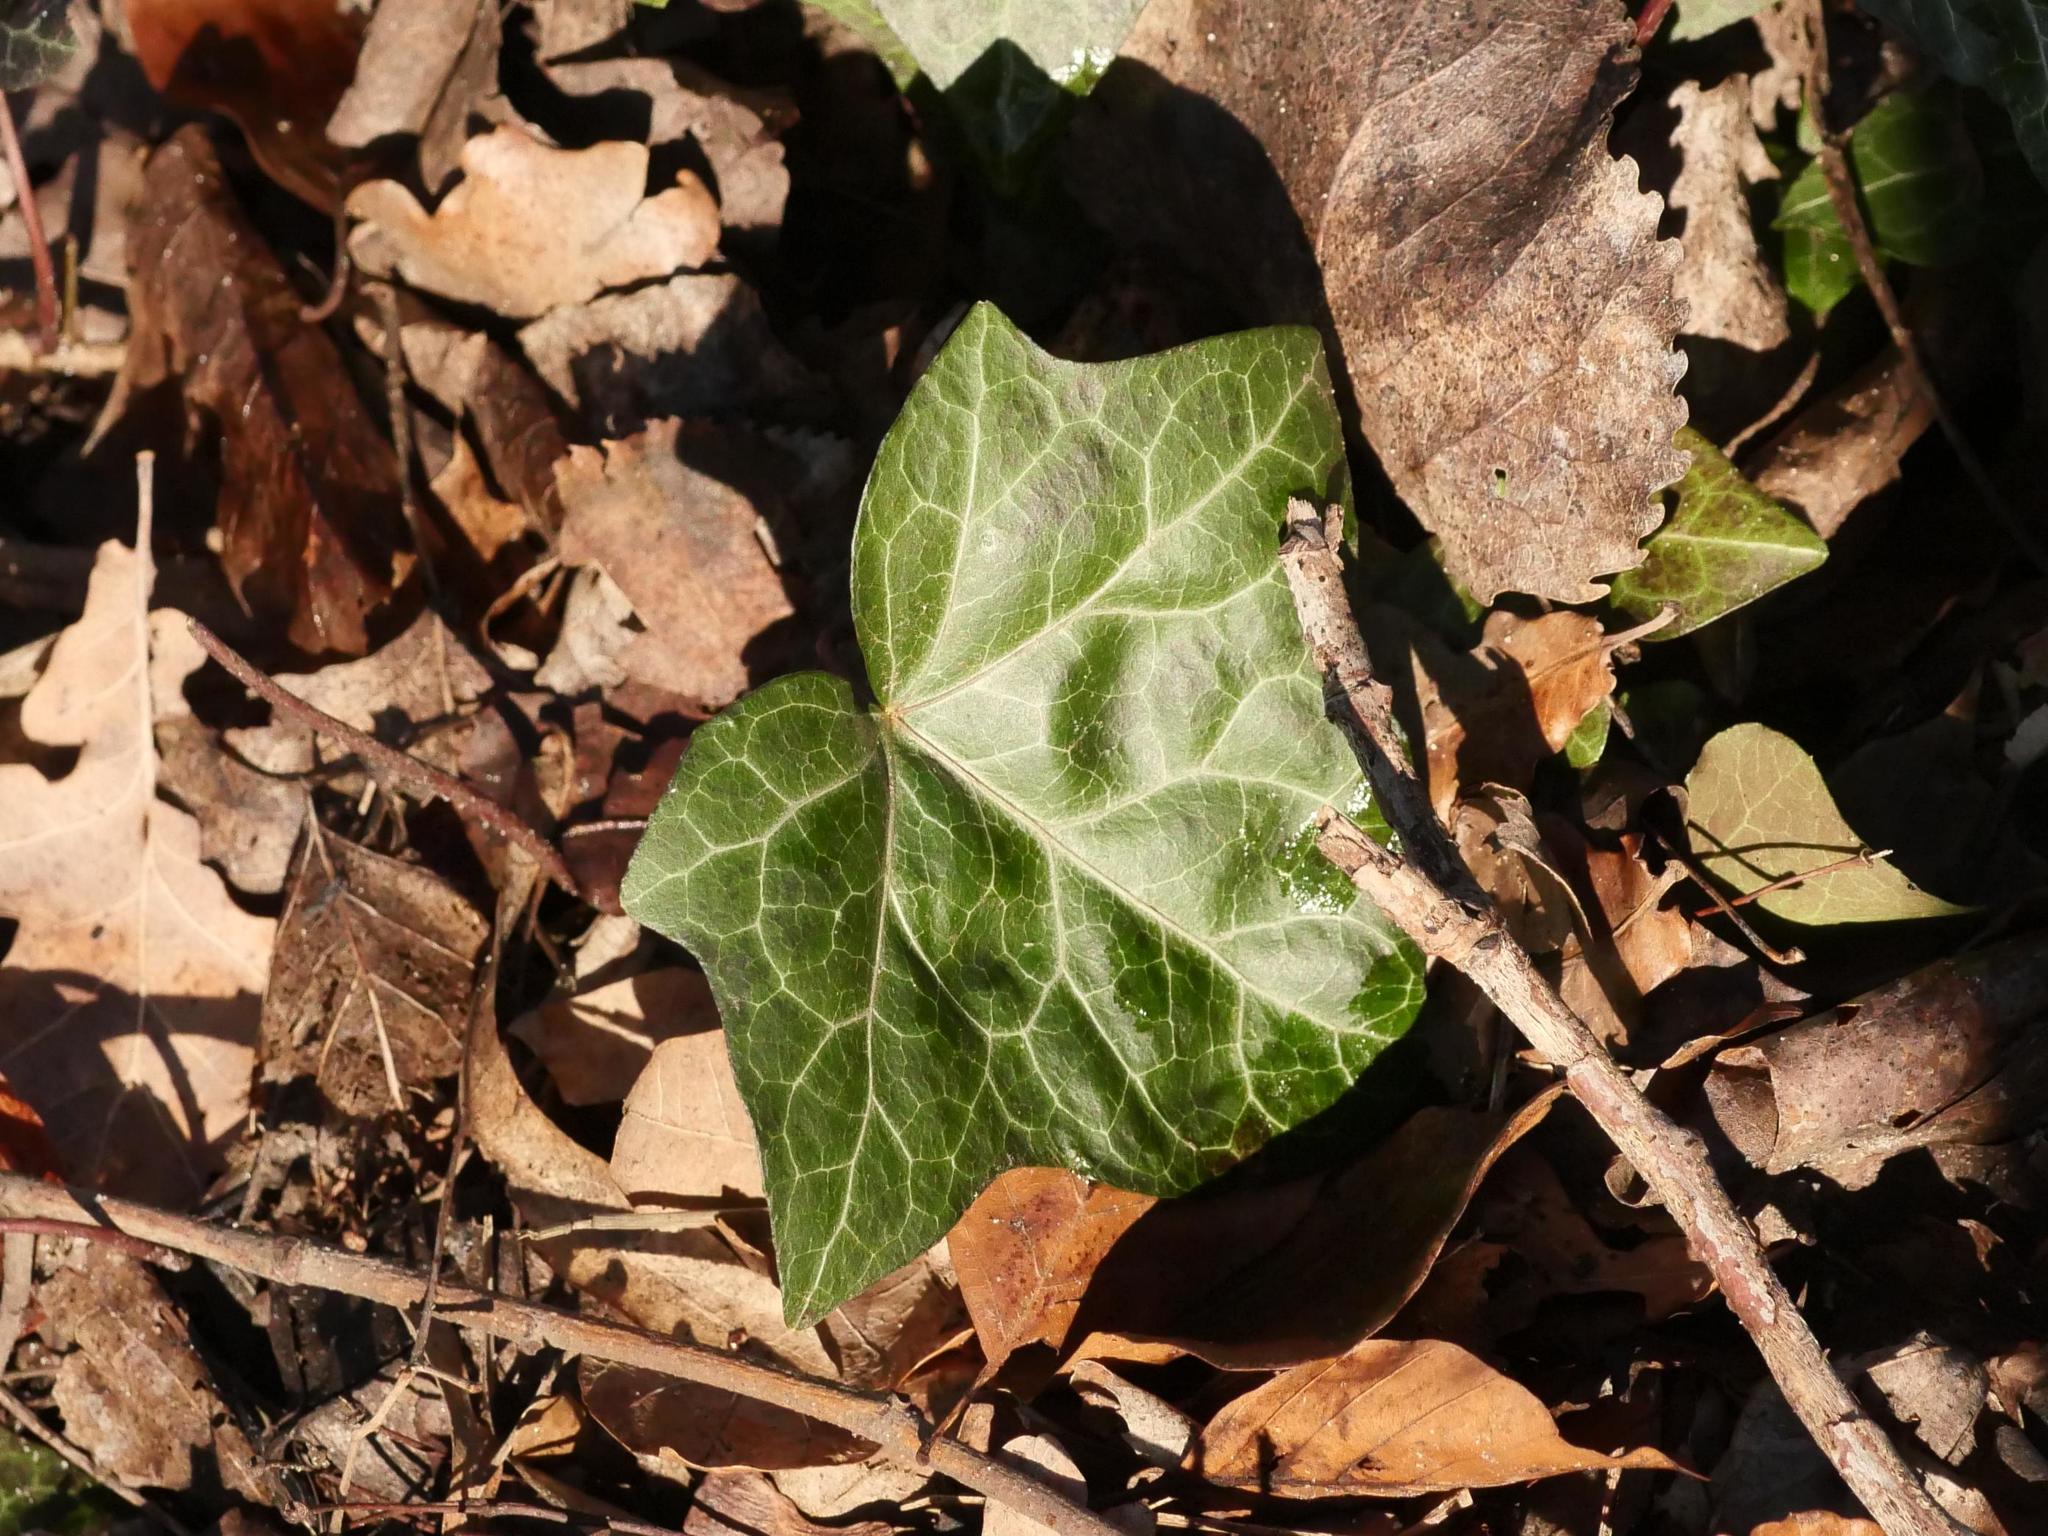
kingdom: Plantae
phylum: Tracheophyta
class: Magnoliopsida
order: Apiales
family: Araliaceae
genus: Hedera
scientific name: Hedera helix
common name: Ivy
